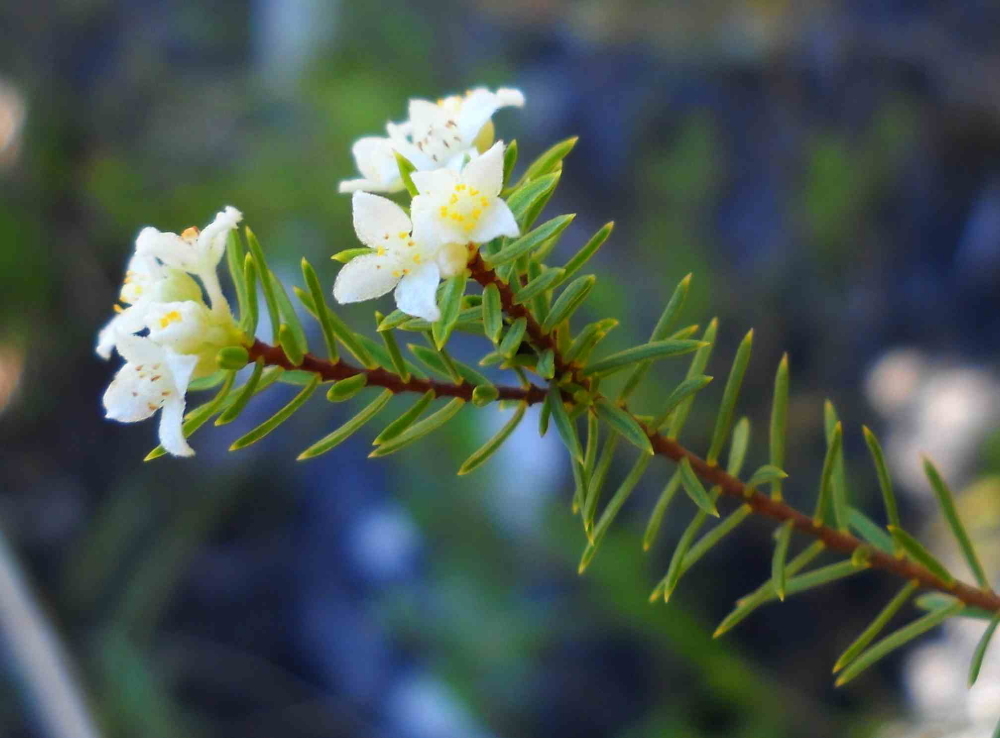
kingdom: Plantae
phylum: Tracheophyta
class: Magnoliopsida
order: Malvales
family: Thymelaeaceae
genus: Lachnaea
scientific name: Lachnaea diosmoides
